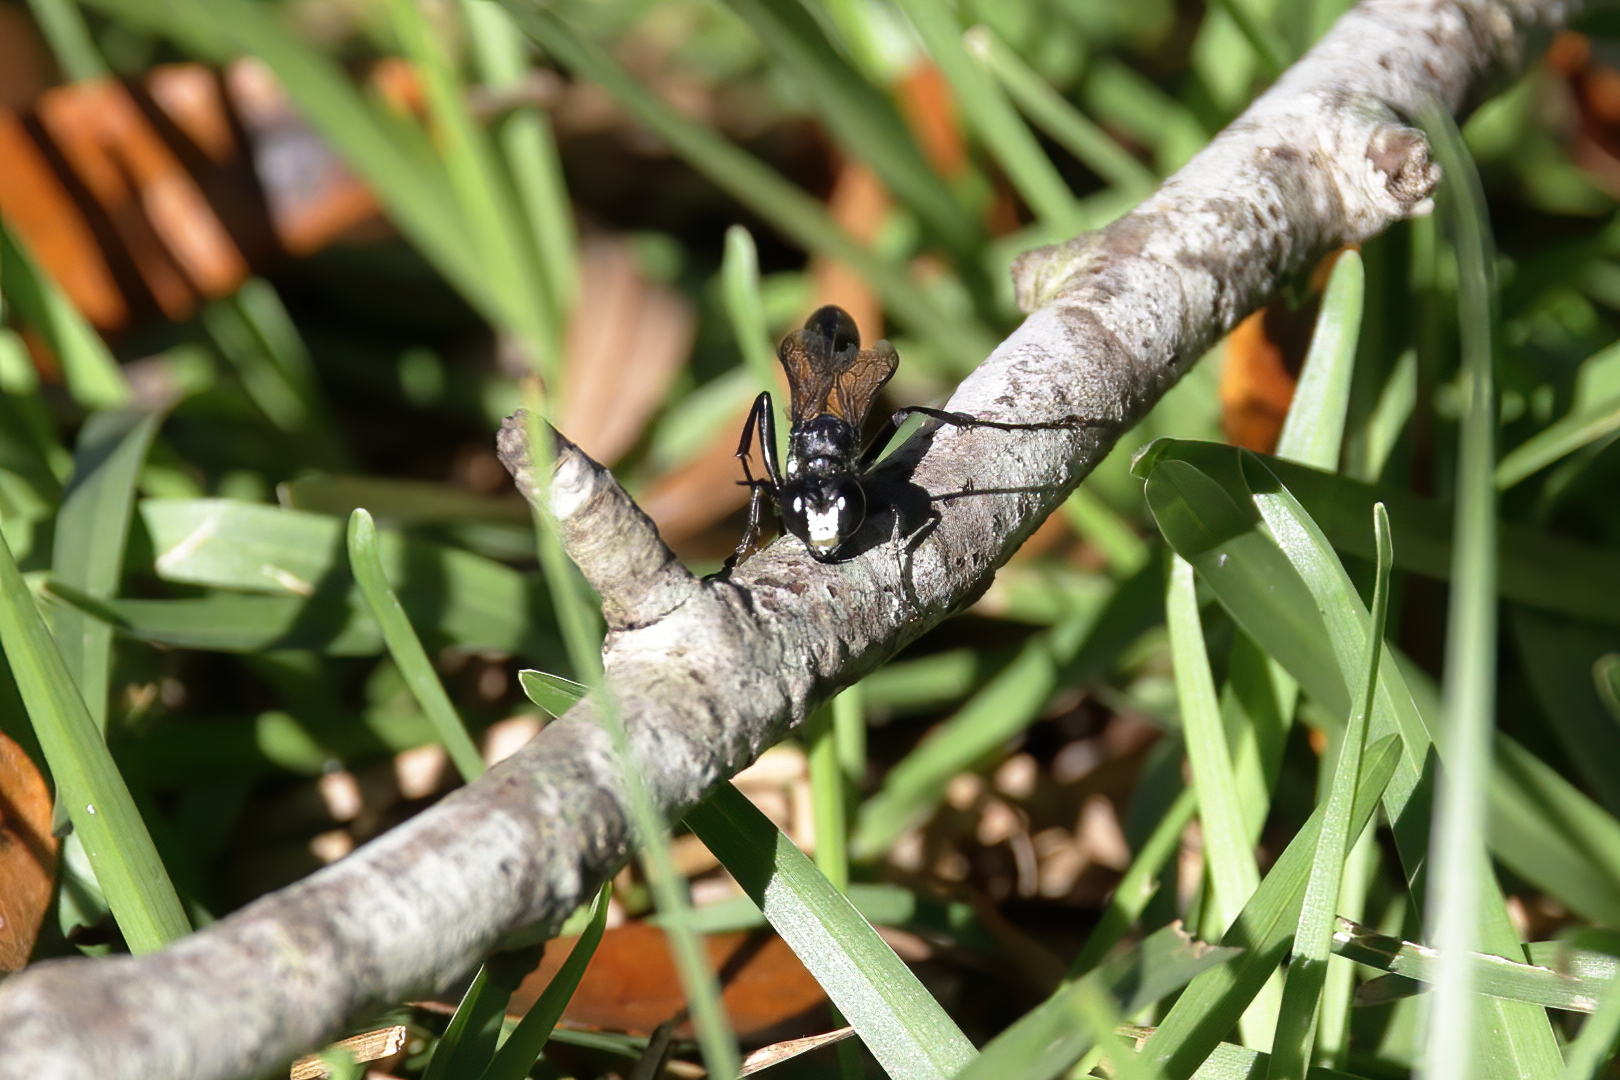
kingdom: Animalia
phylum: Arthropoda
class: Insecta
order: Hymenoptera
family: Sphecidae
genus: Eremnophila
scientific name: Eremnophila aureonotata
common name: Gold-marked thread-waisted wasp
